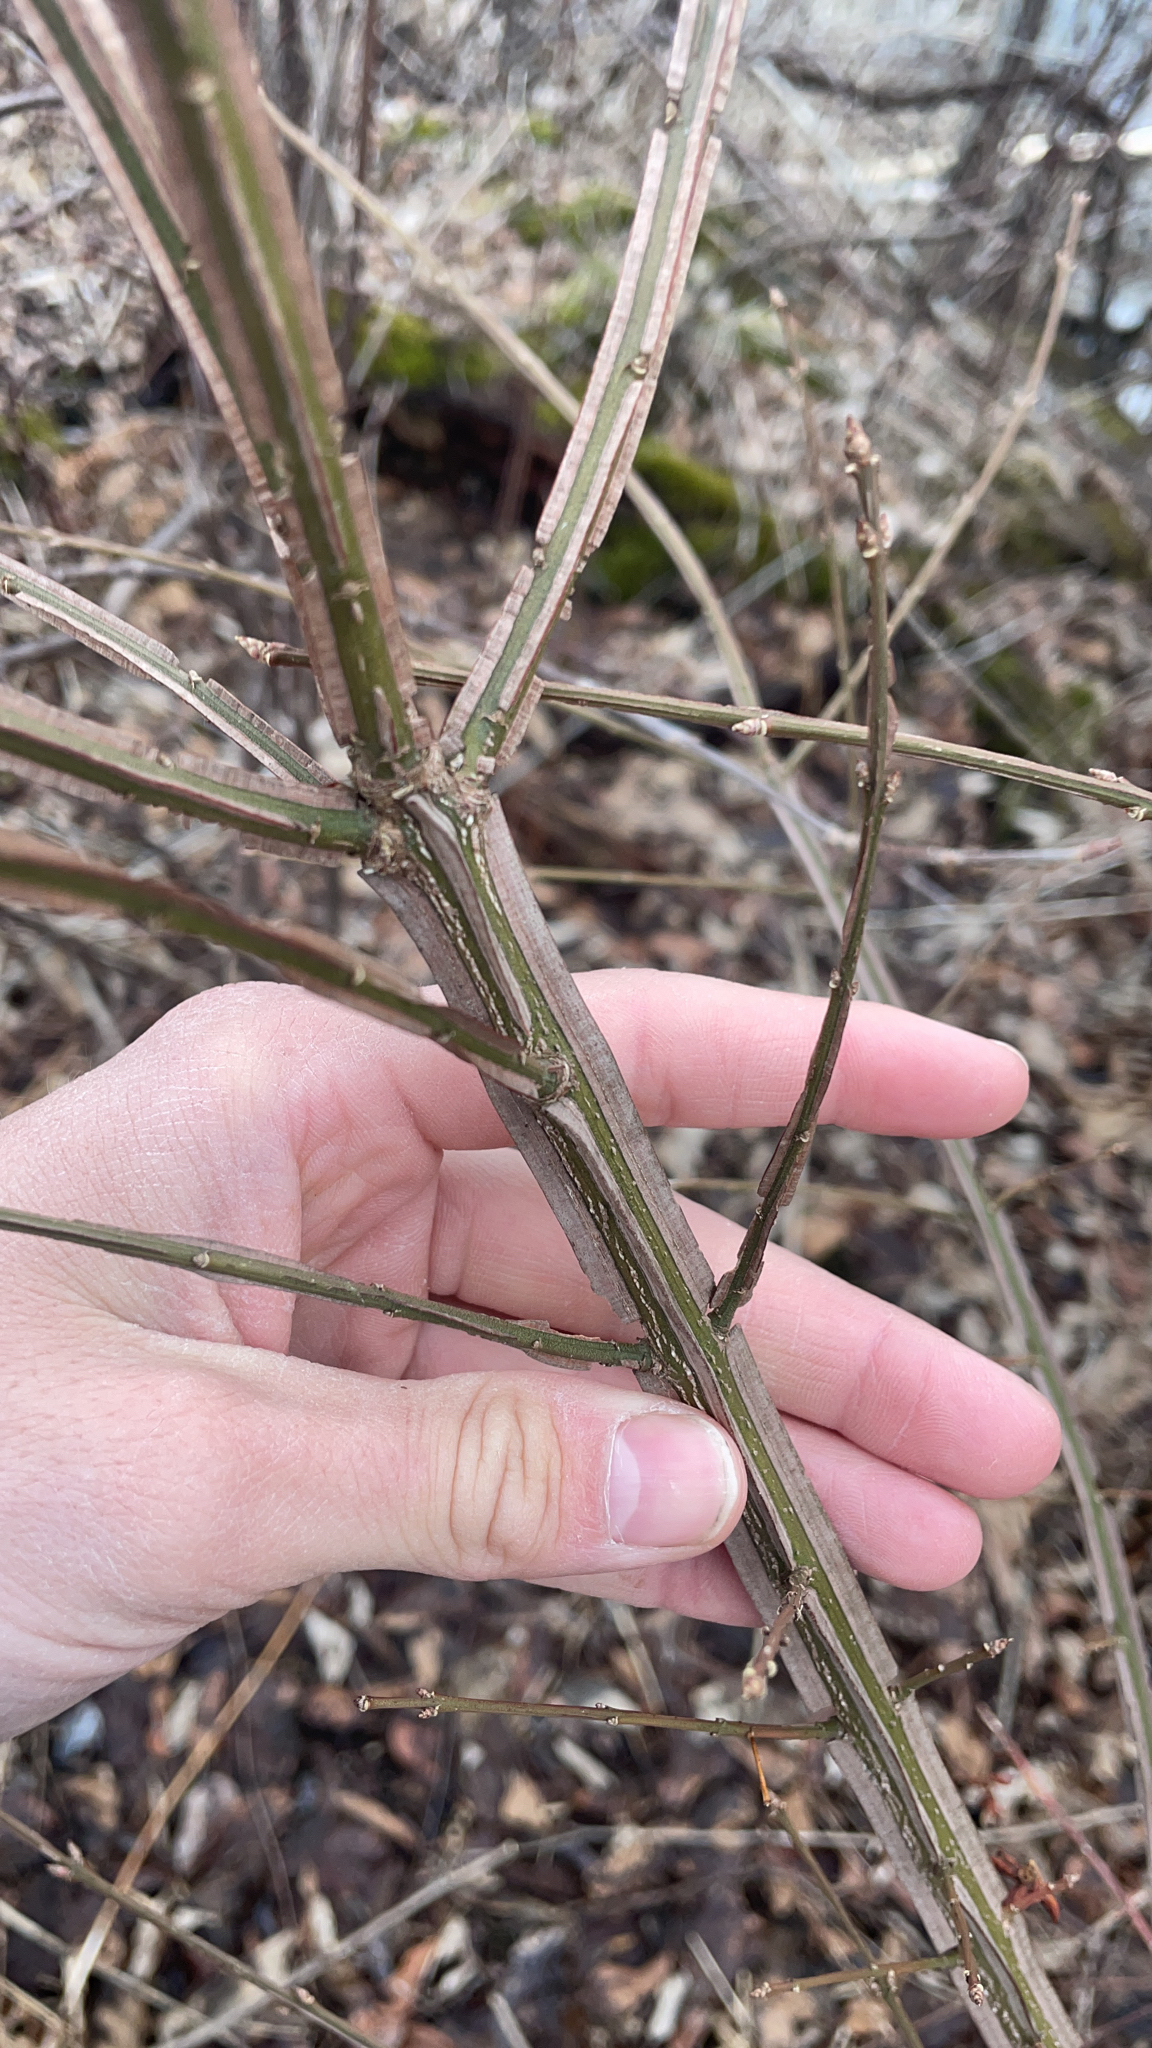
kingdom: Plantae
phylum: Tracheophyta
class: Magnoliopsida
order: Celastrales
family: Celastraceae
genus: Euonymus
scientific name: Euonymus alatus
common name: Winged euonymus
